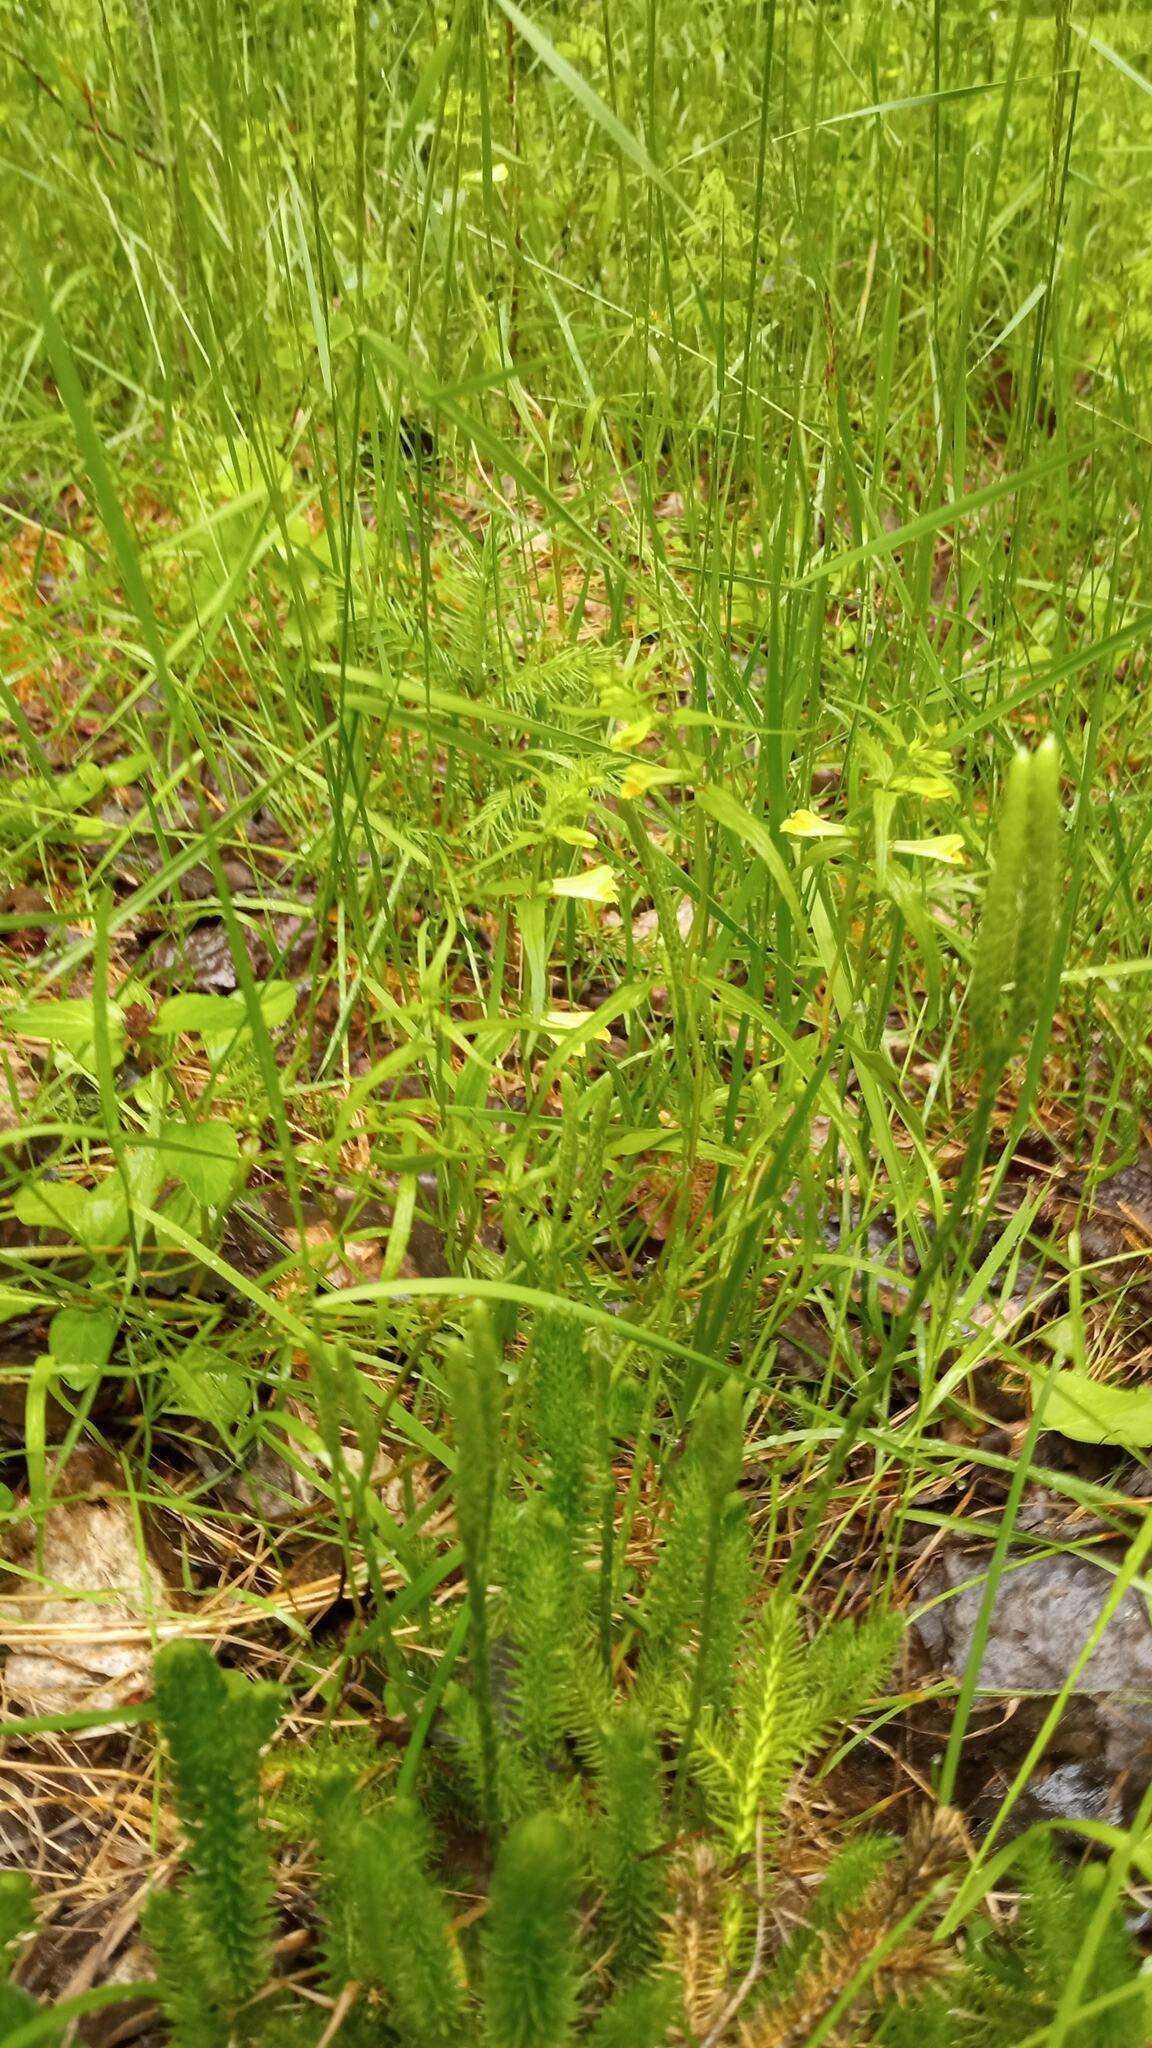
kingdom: Plantae
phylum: Tracheophyta
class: Magnoliopsida
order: Lamiales
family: Orobanchaceae
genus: Melampyrum
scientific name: Melampyrum pratense
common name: Common cow-wheat
